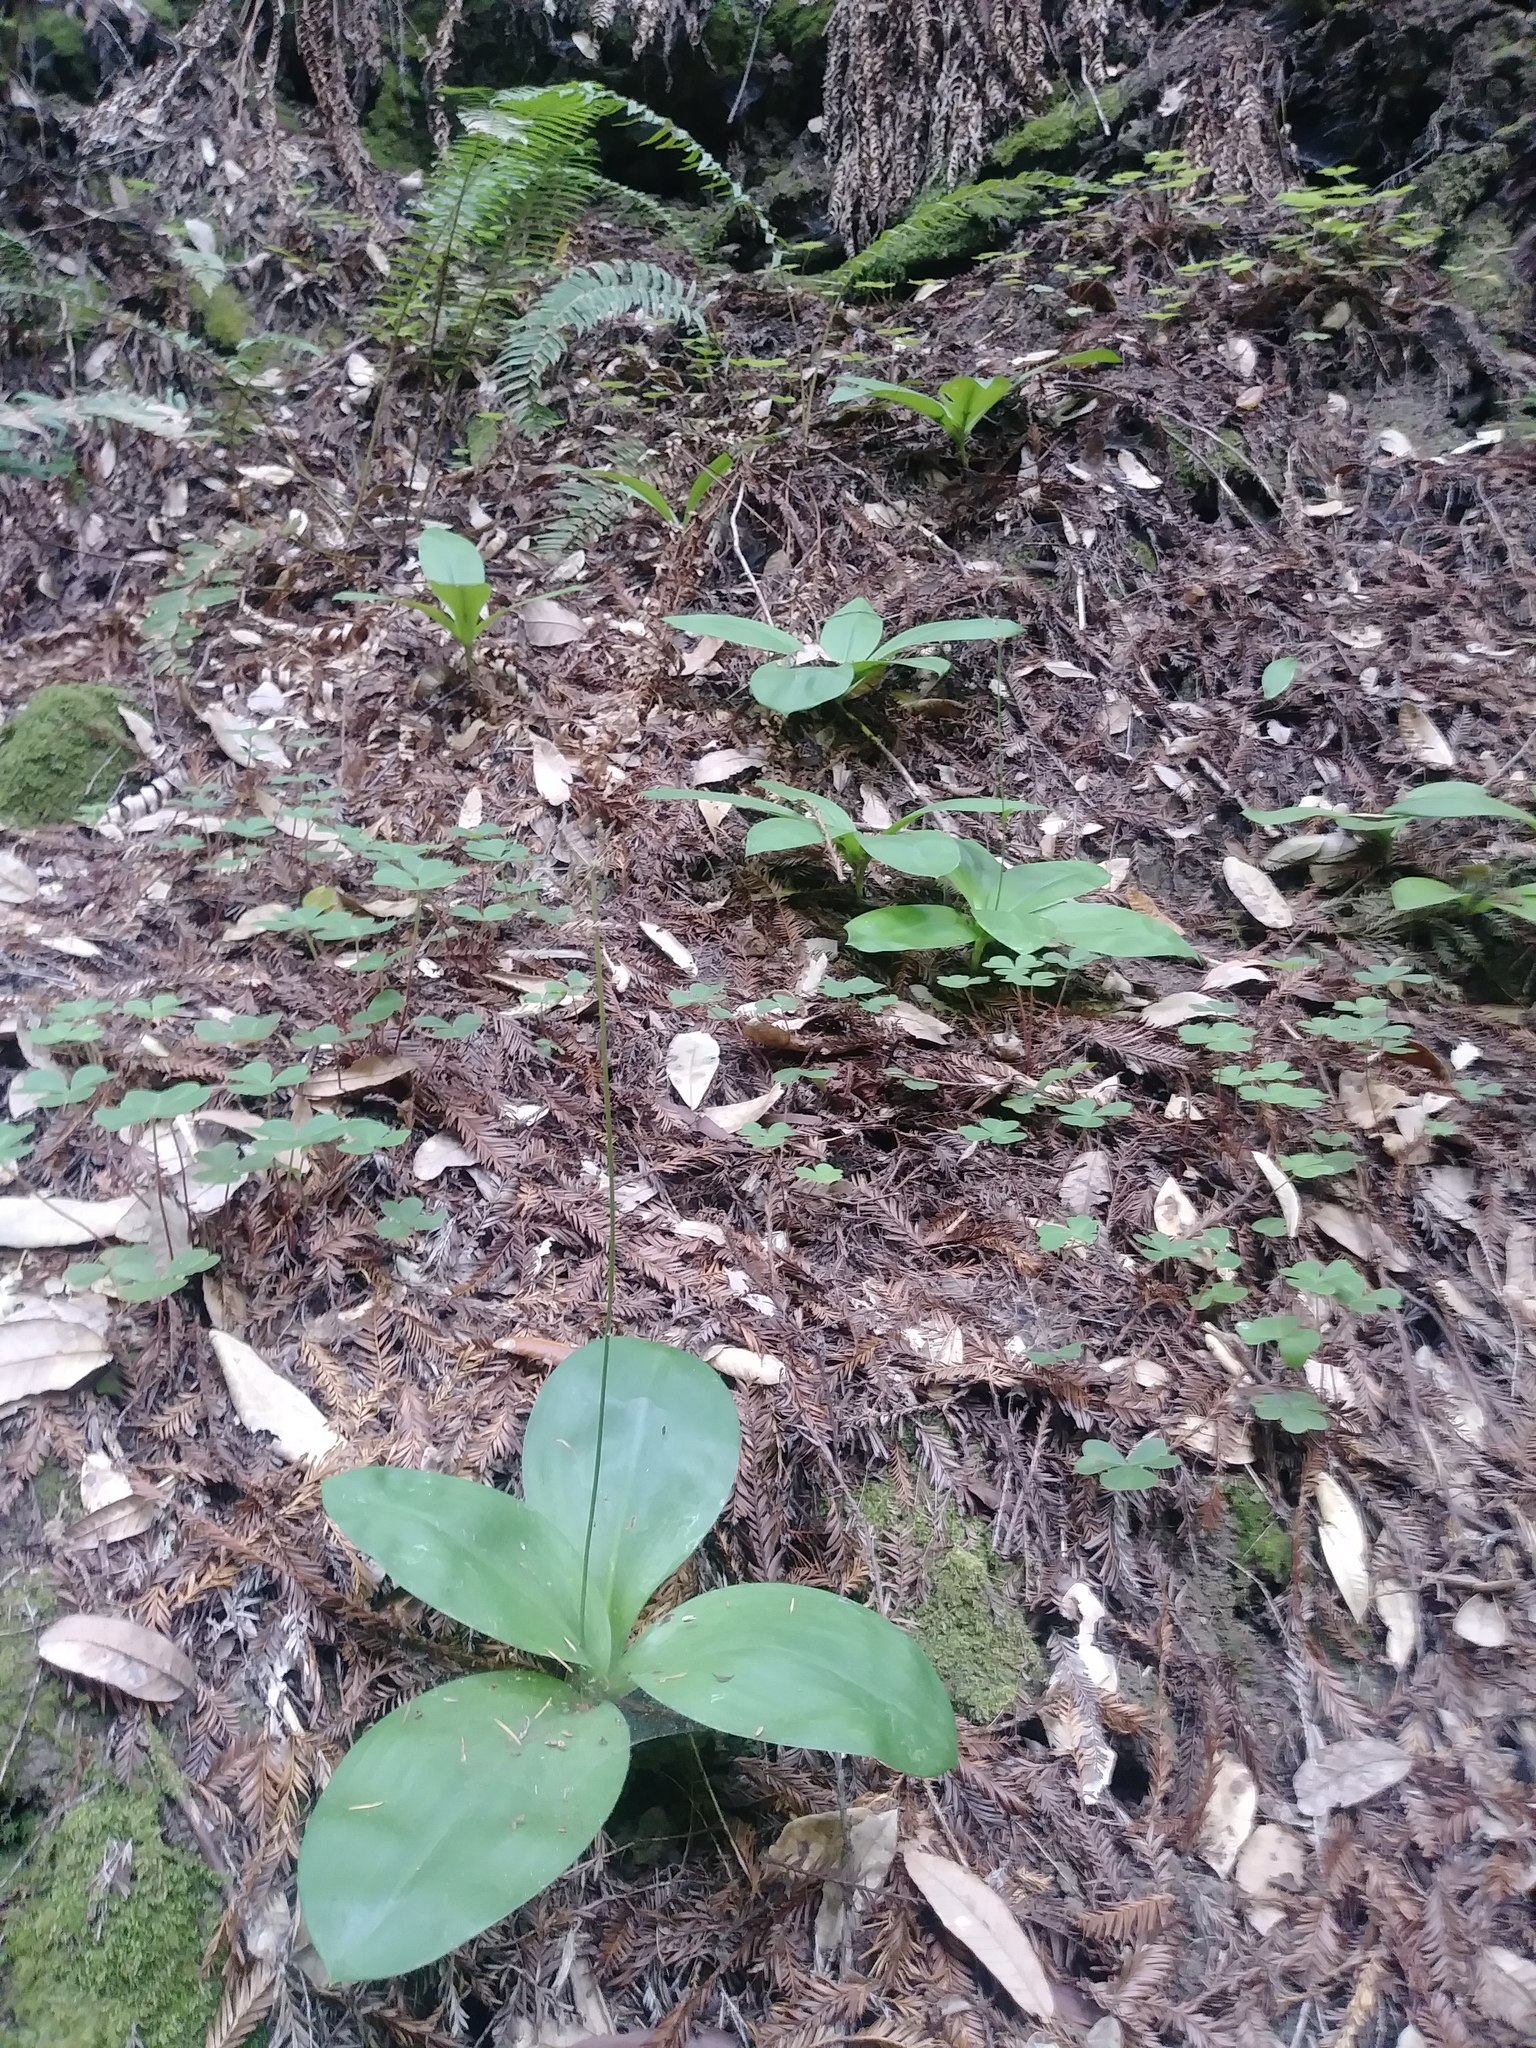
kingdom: Plantae
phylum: Tracheophyta
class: Liliopsida
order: Liliales
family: Liliaceae
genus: Clintonia
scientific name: Clintonia andrewsiana
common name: Red clintonia
